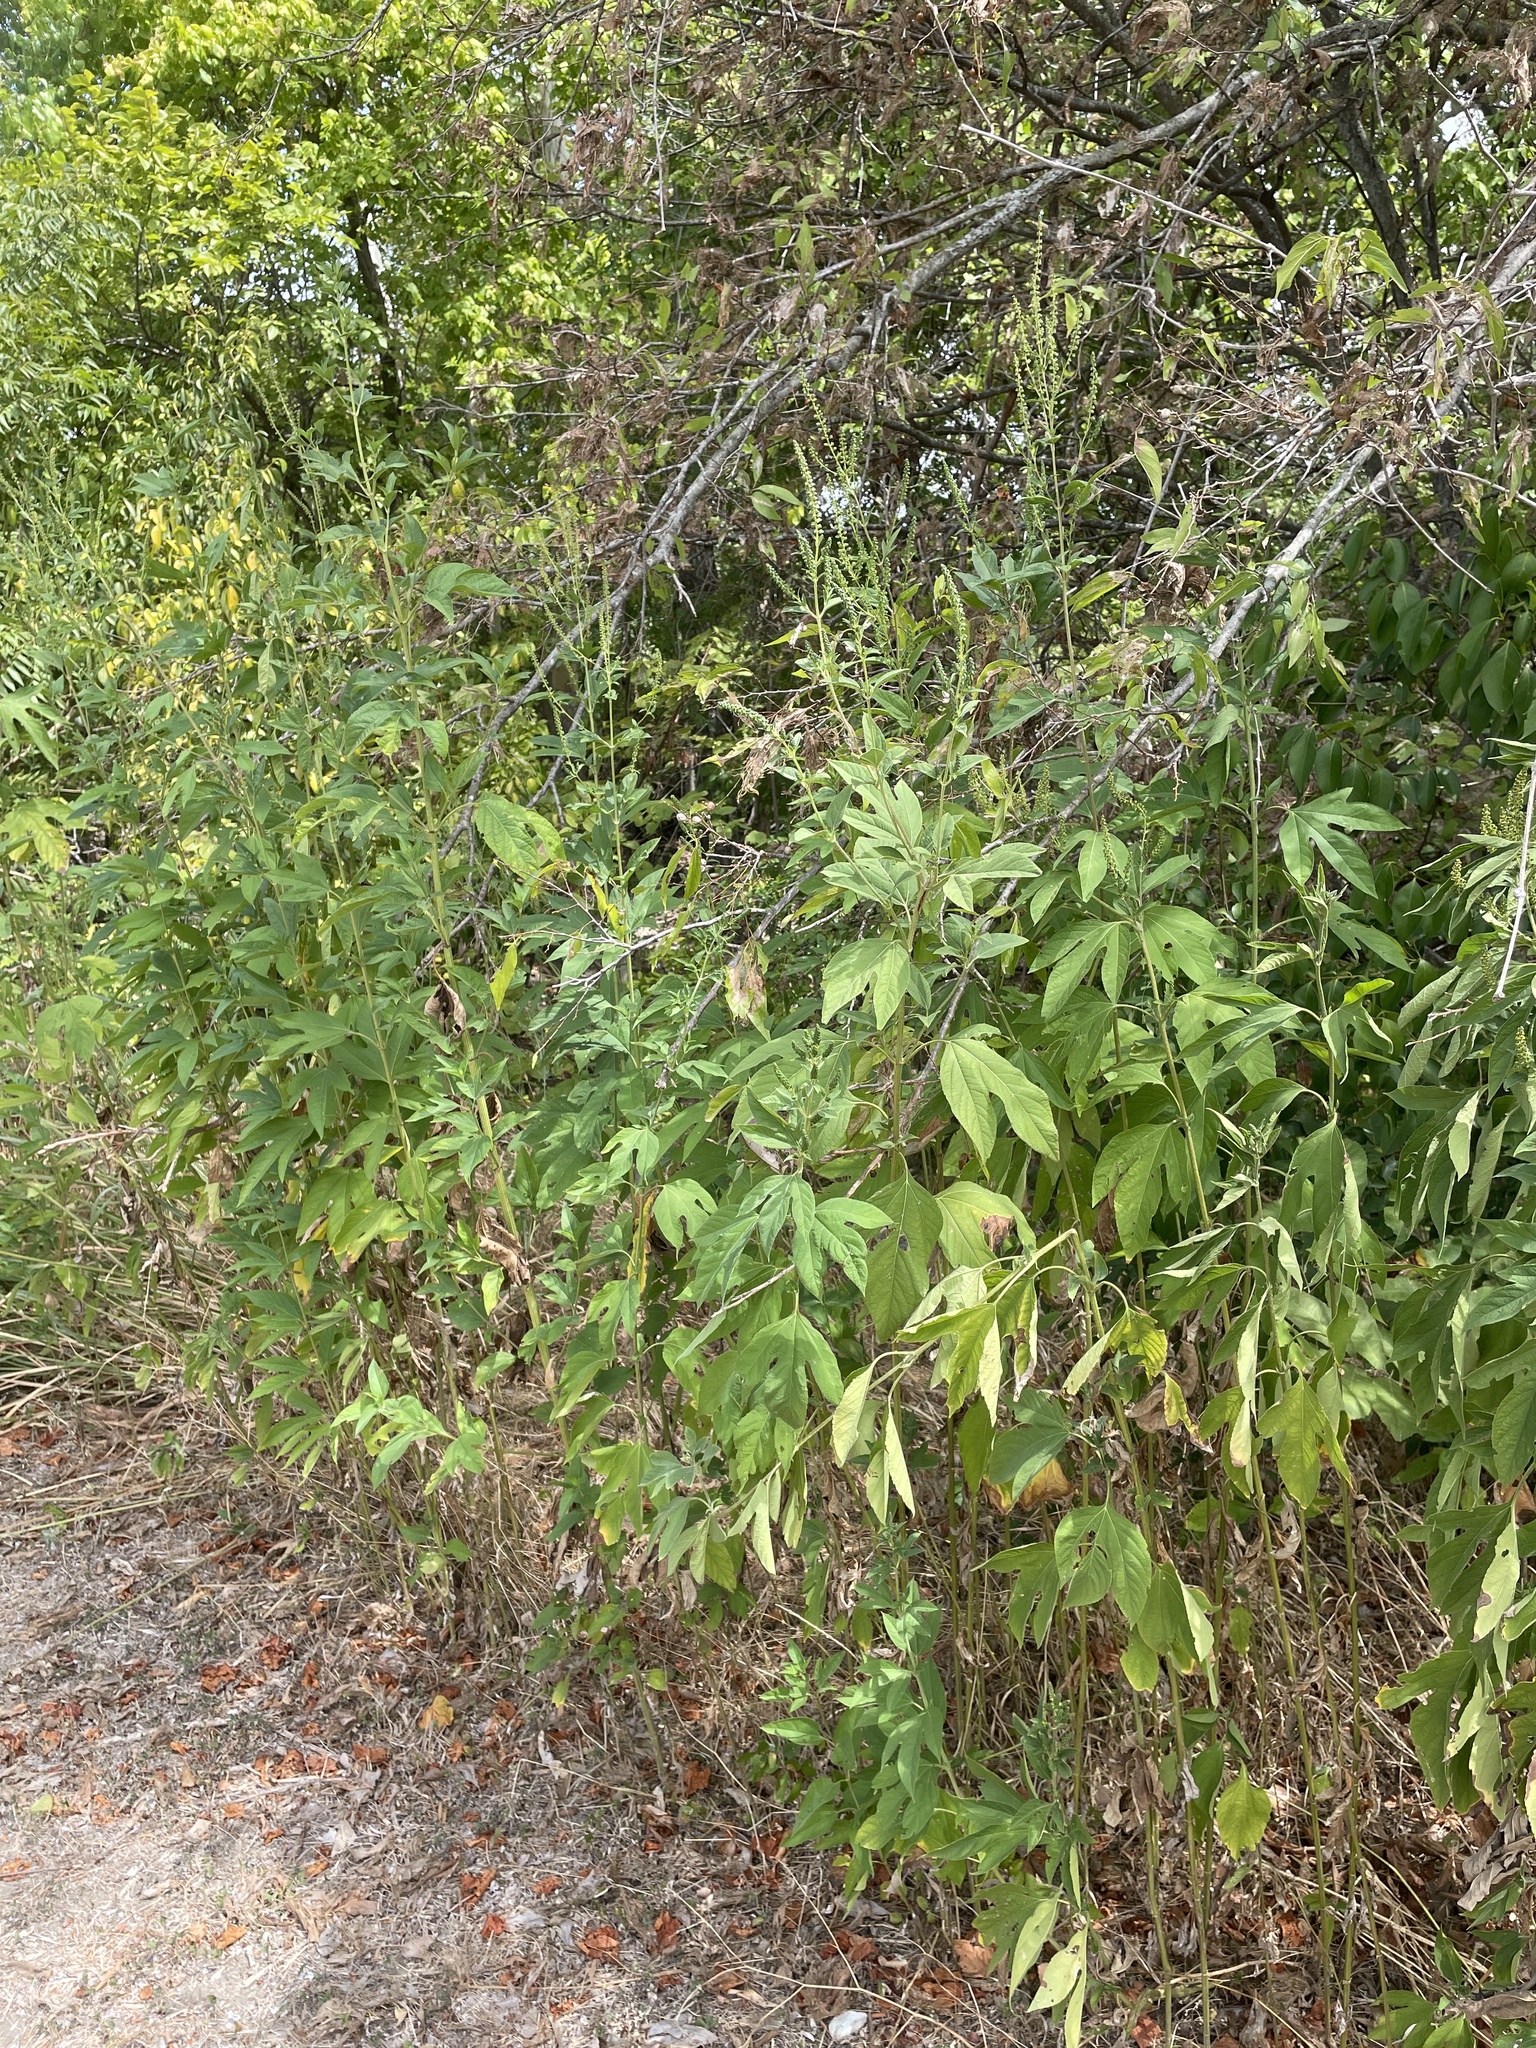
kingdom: Plantae
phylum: Tracheophyta
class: Magnoliopsida
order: Asterales
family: Asteraceae
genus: Ambrosia
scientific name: Ambrosia trifida
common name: Giant ragweed
